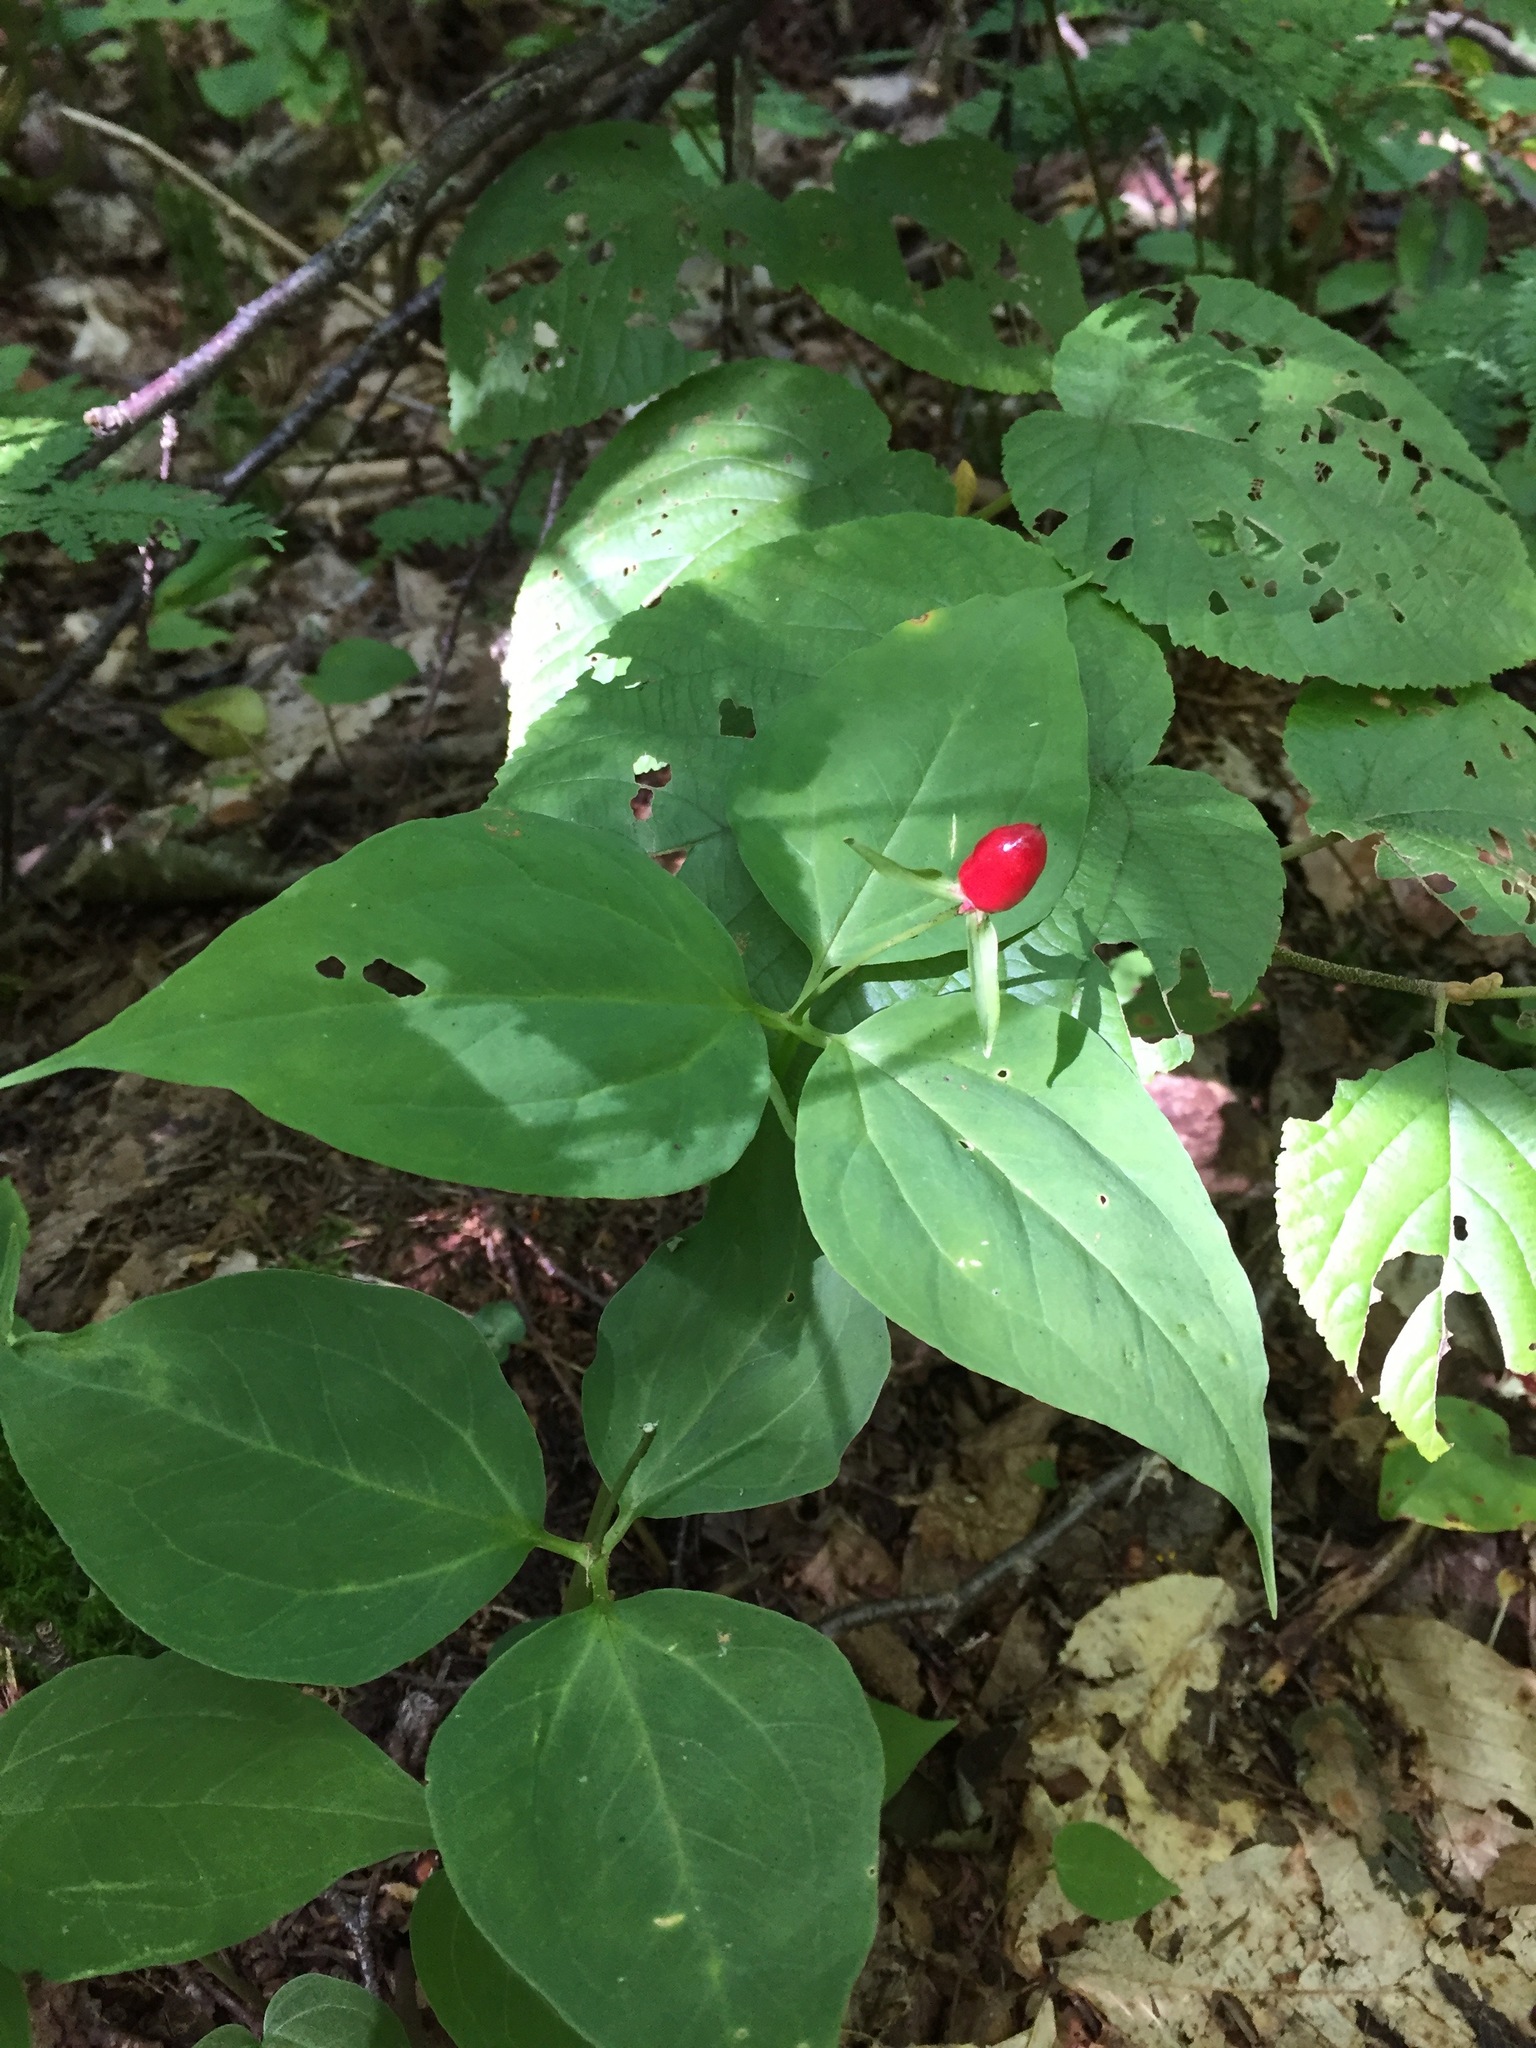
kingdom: Plantae
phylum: Tracheophyta
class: Liliopsida
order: Liliales
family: Melanthiaceae
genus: Trillium
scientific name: Trillium undulatum
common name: Paint trillium
